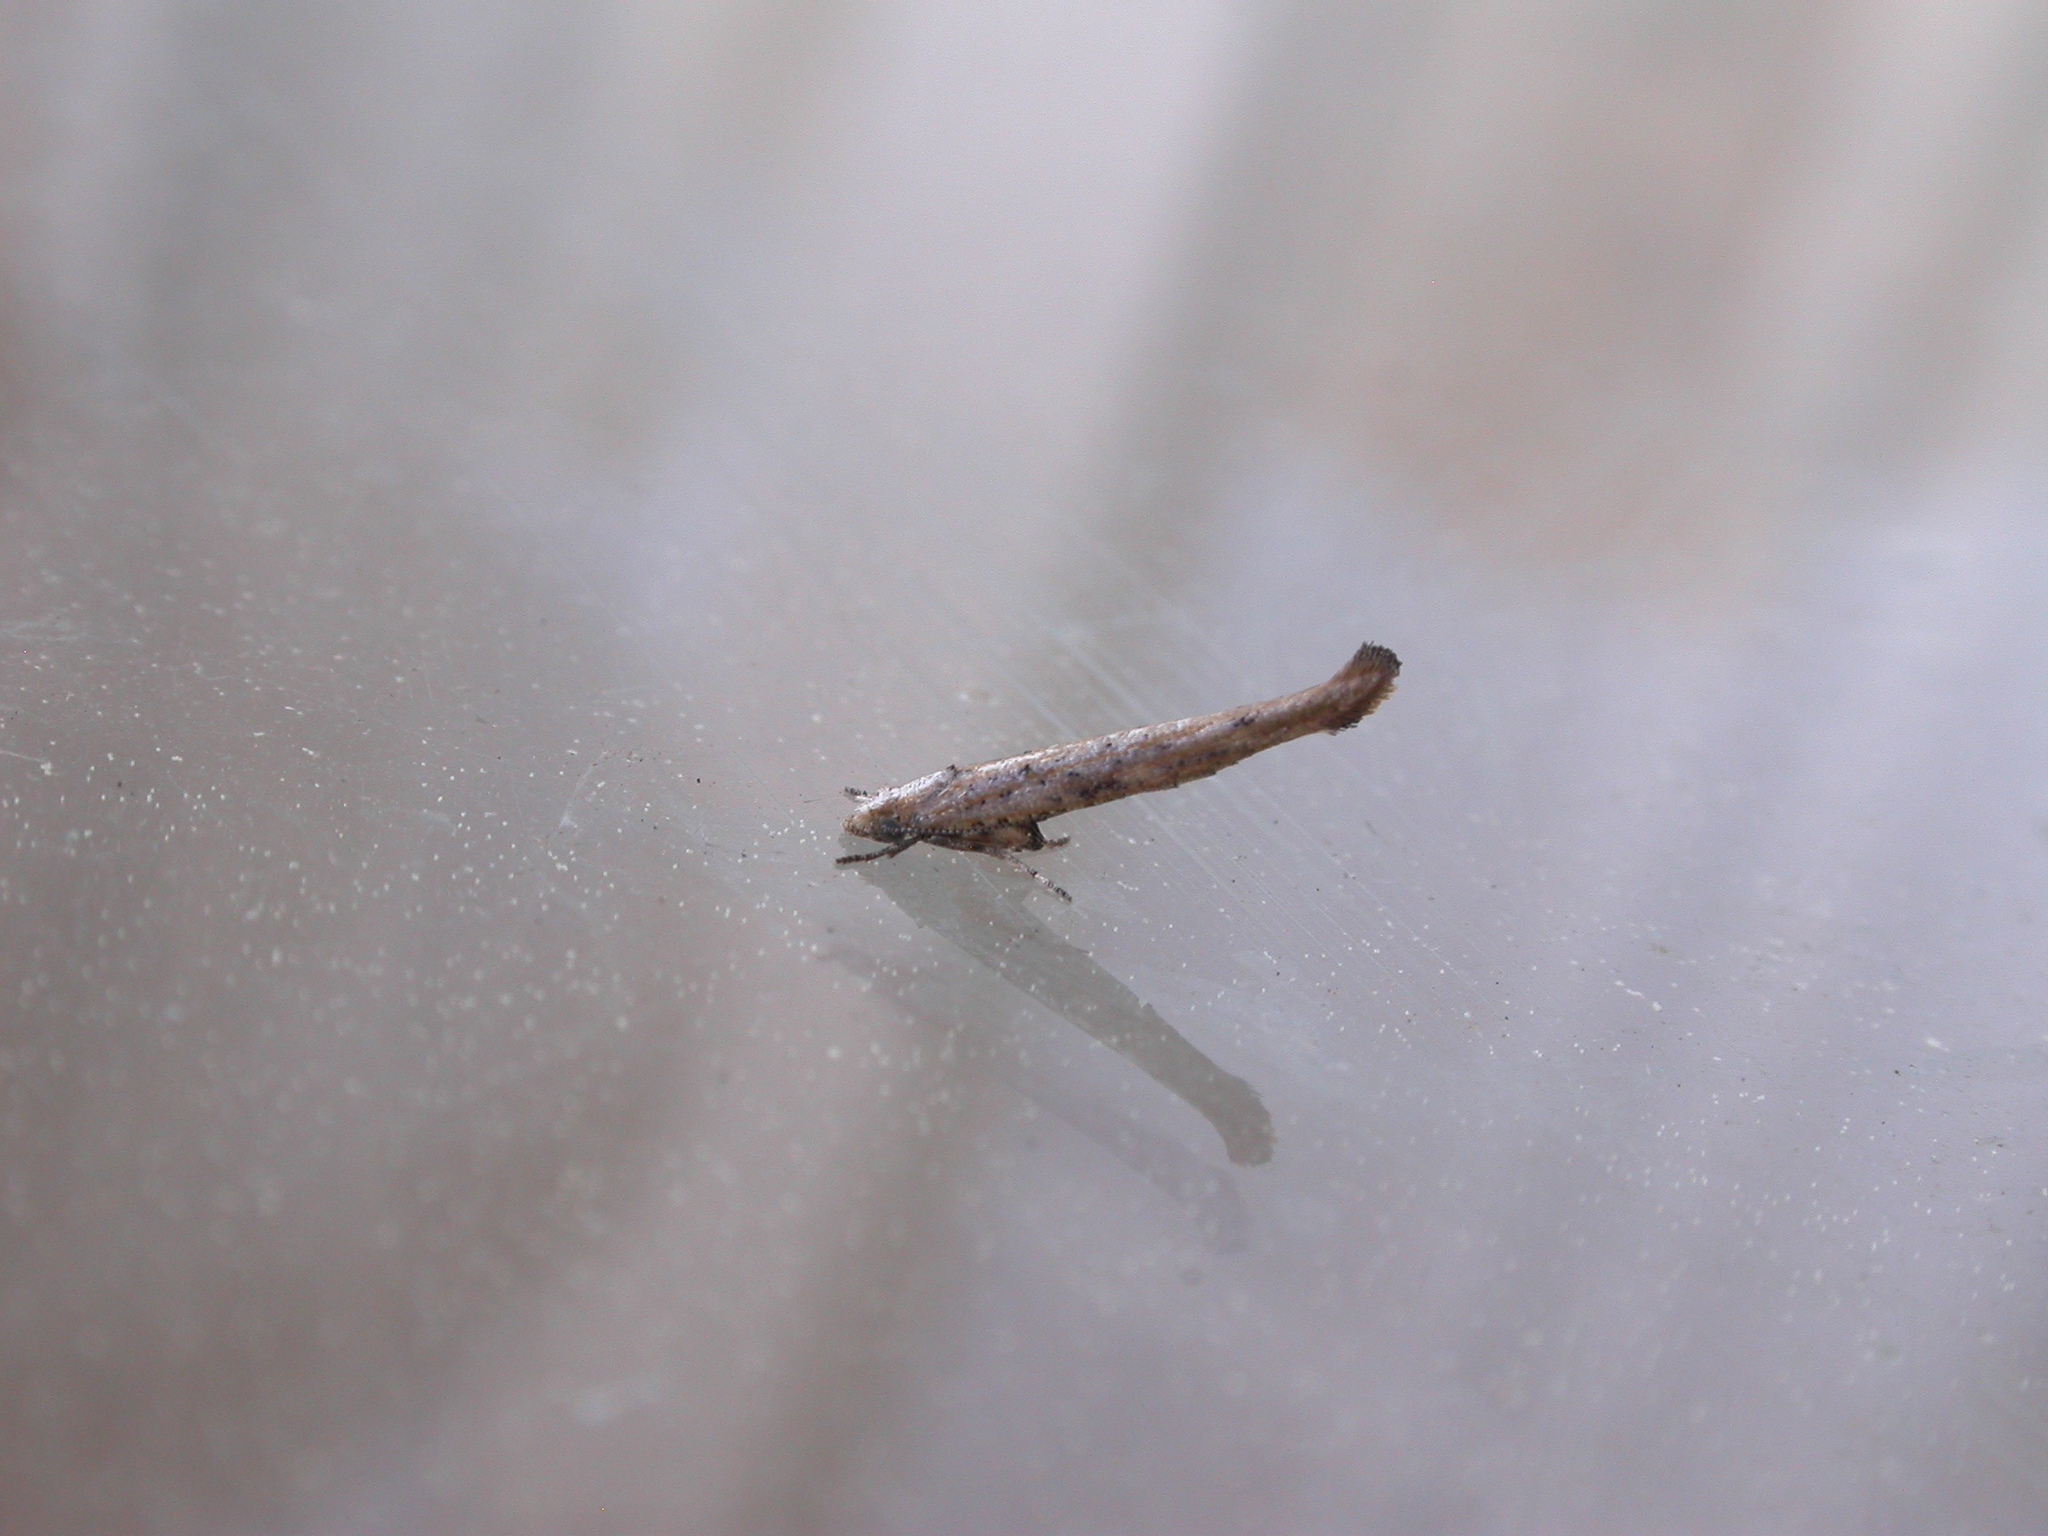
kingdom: Animalia
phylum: Arthropoda
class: Insecta
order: Lepidoptera
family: Yponomeutidae
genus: Zelleria
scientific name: Zelleria cynetica
